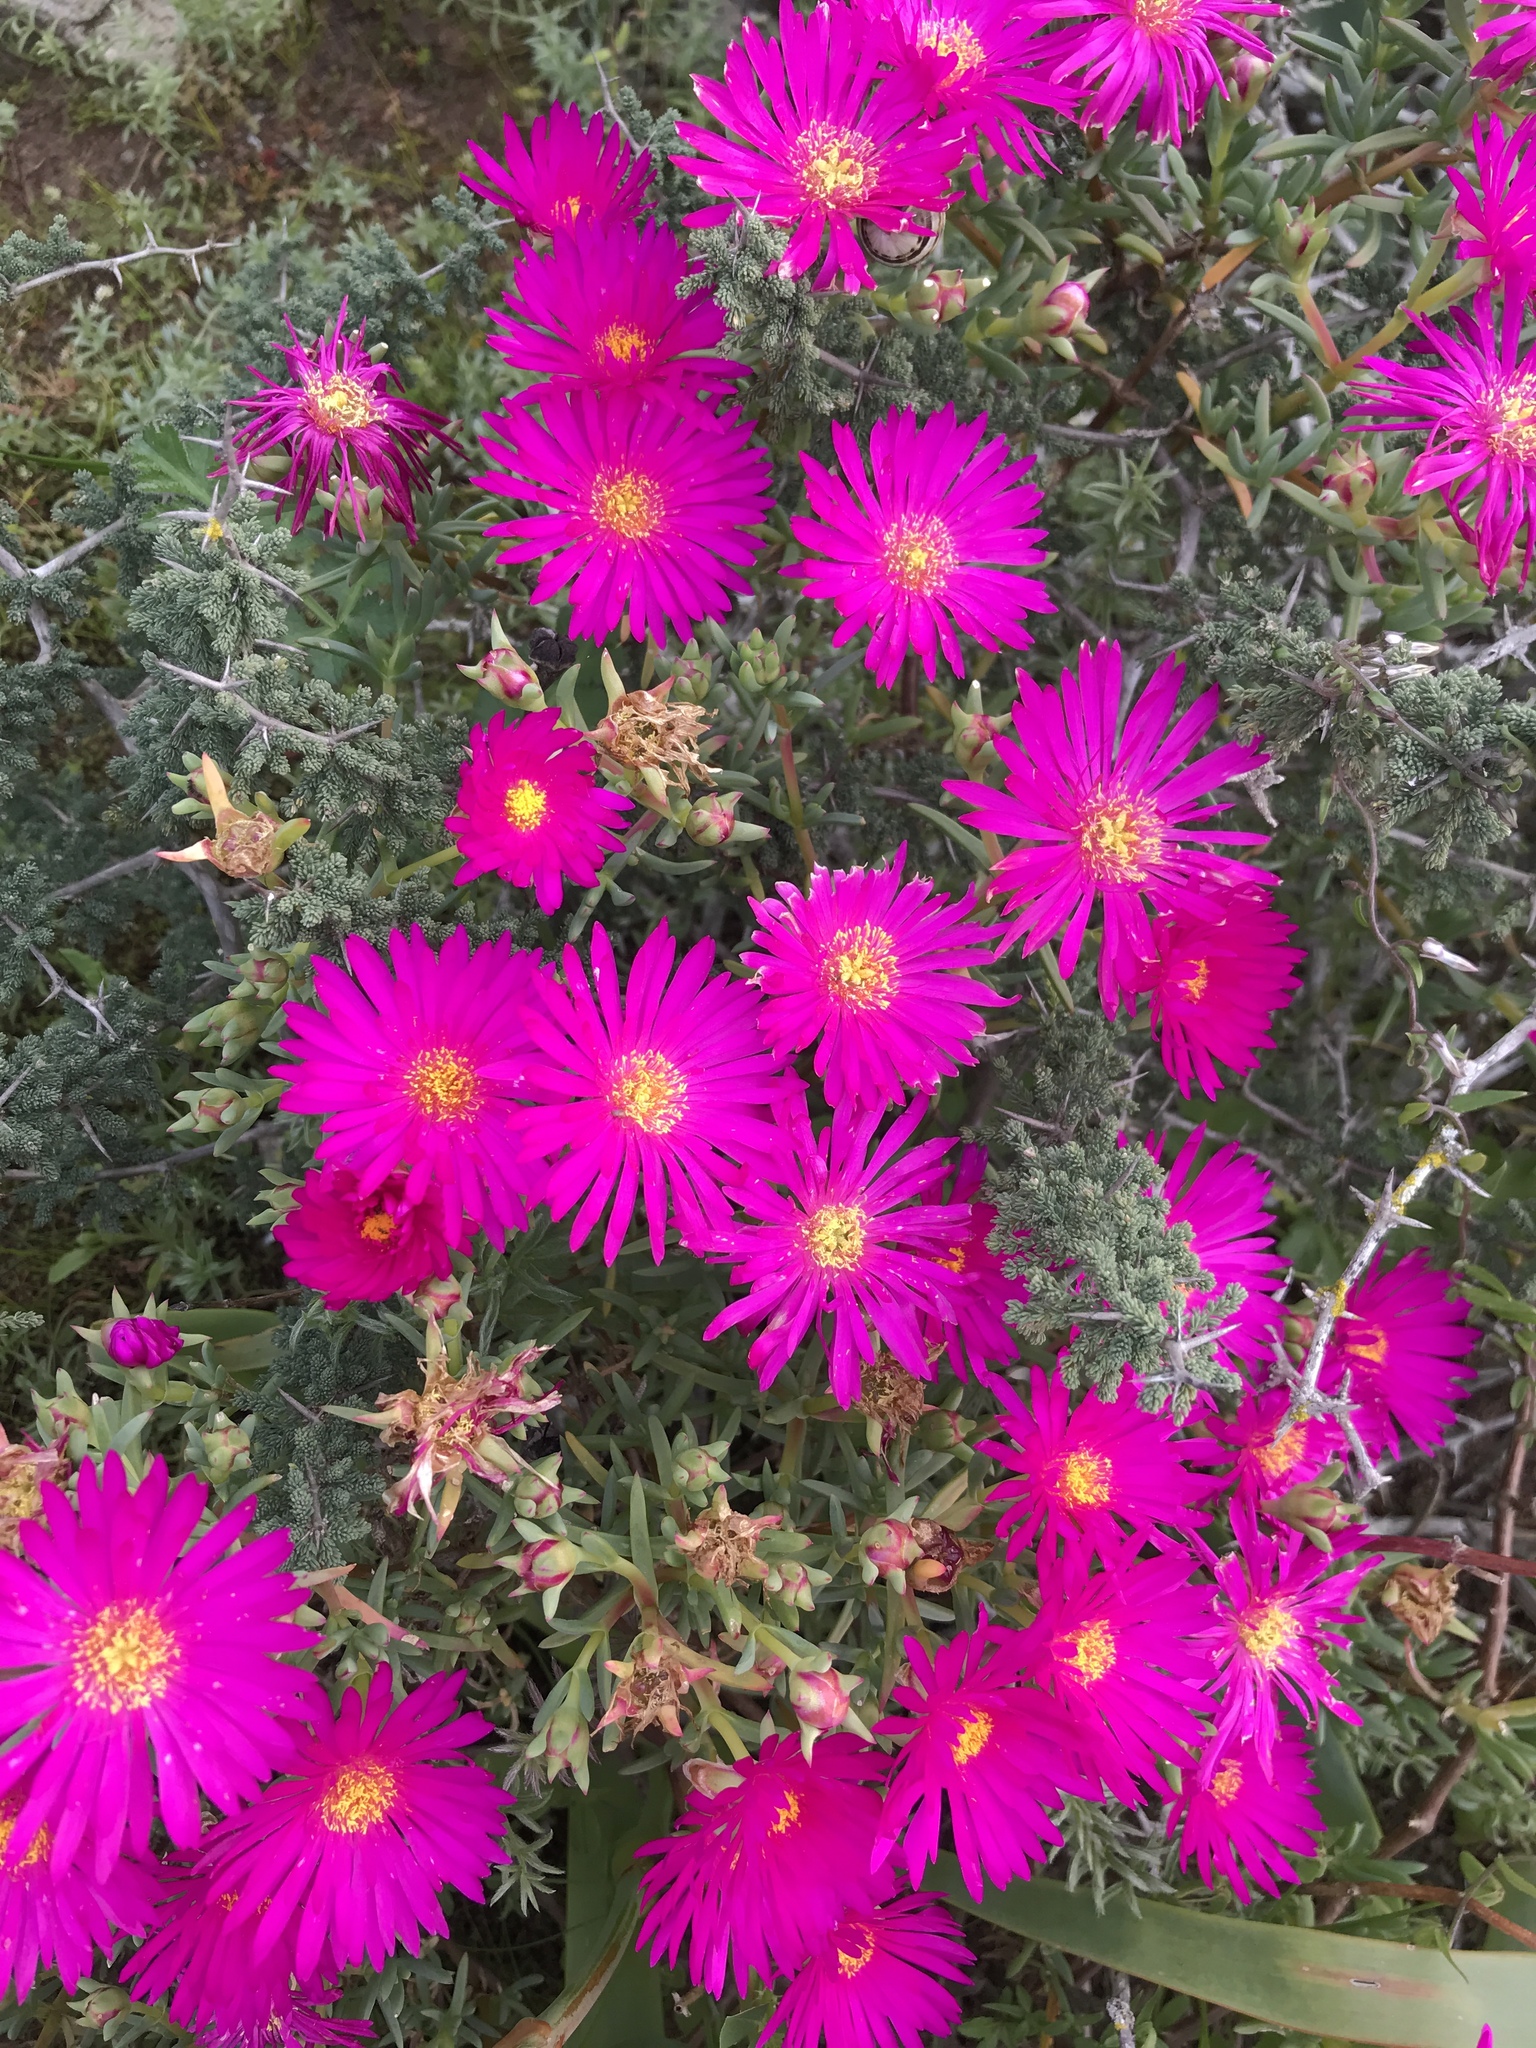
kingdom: Plantae
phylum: Tracheophyta
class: Magnoliopsida
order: Caryophyllales
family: Aizoaceae
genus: Lampranthus
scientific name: Lampranthus vernalis
